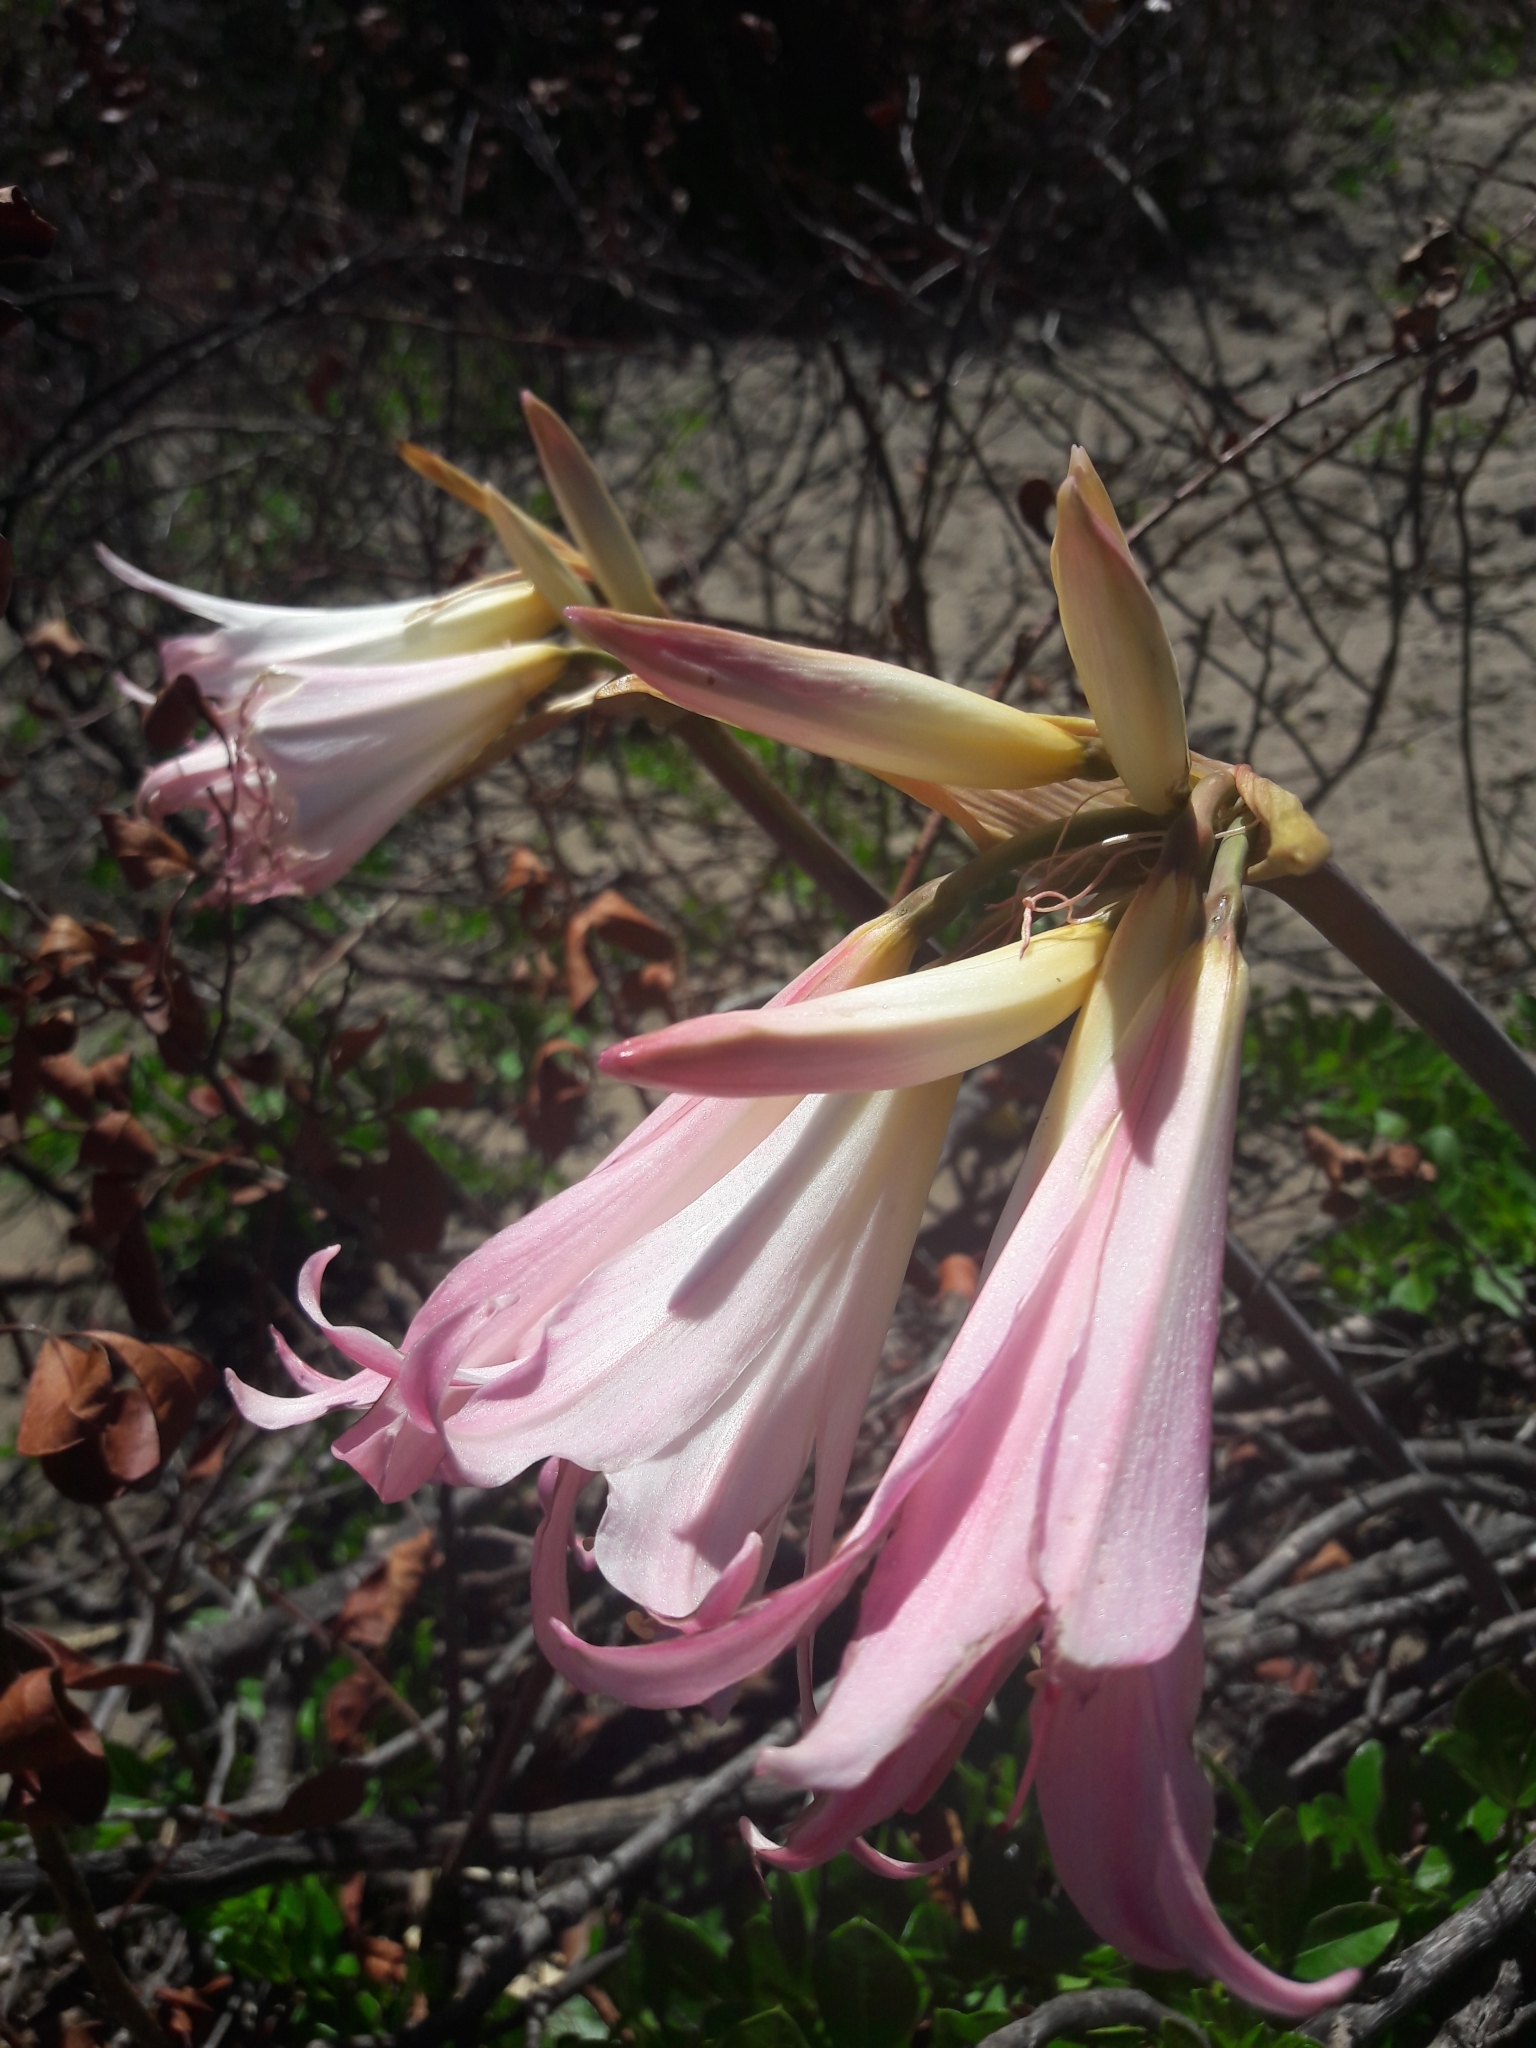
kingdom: Plantae
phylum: Tracheophyta
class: Liliopsida
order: Asparagales
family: Amaryllidaceae
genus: Amaryllis
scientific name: Amaryllis belladonna
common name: Jersey lily
